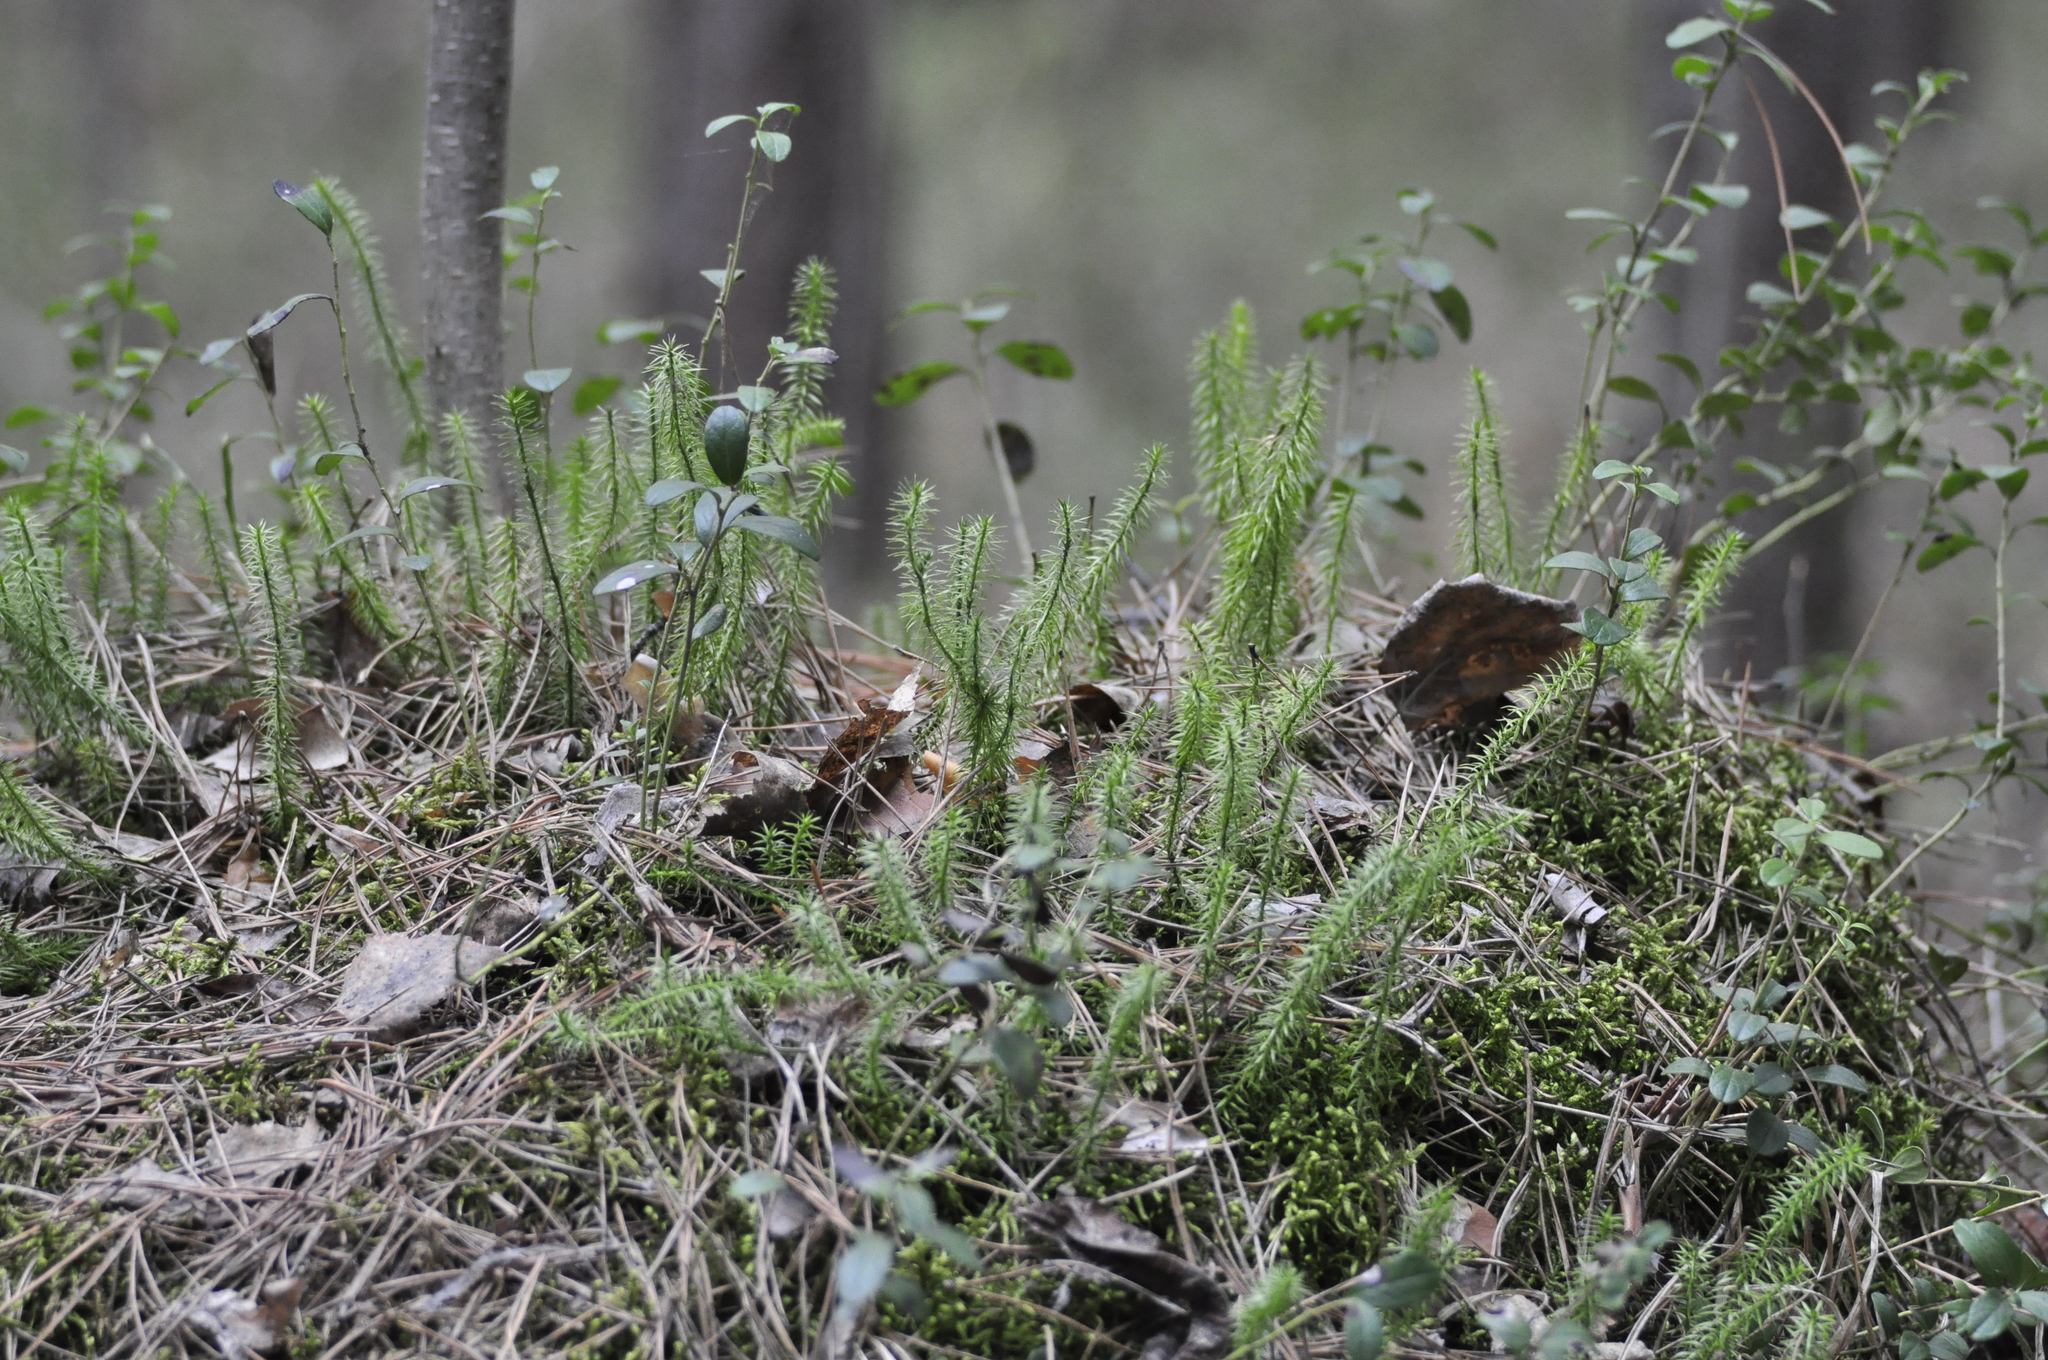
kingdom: Plantae
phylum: Tracheophyta
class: Lycopodiopsida
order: Lycopodiales
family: Lycopodiaceae
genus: Spinulum
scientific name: Spinulum annotinum
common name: Interrupted club-moss
